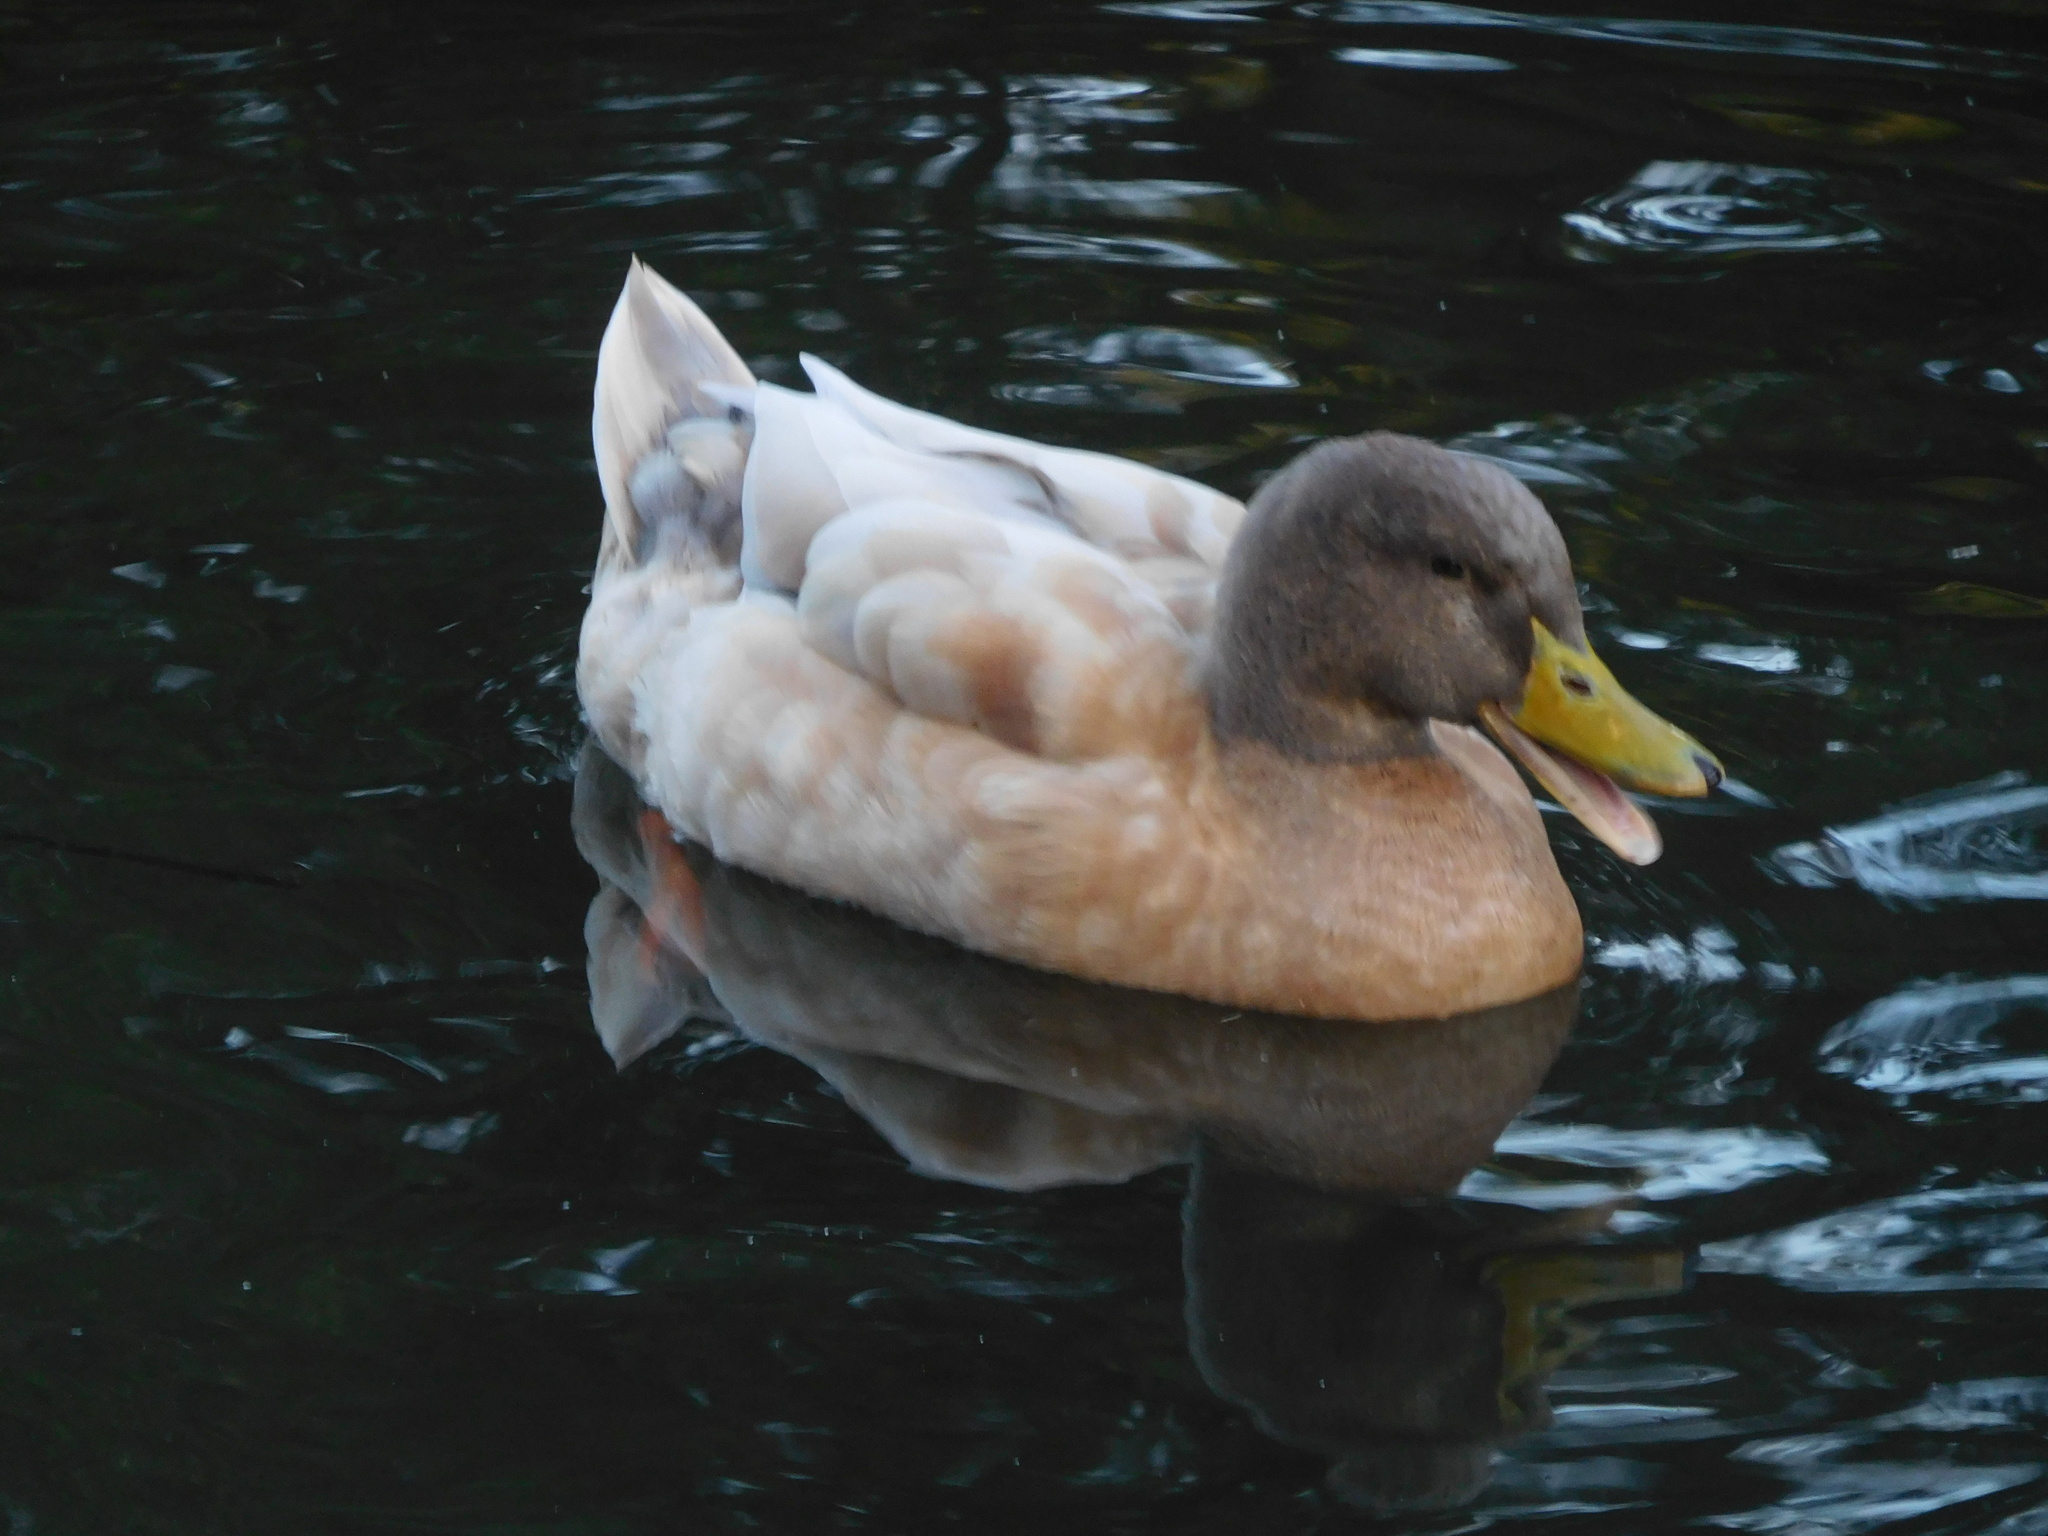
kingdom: Animalia
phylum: Chordata
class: Aves
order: Anseriformes
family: Anatidae
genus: Anas
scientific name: Anas platyrhynchos
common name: Mallard
